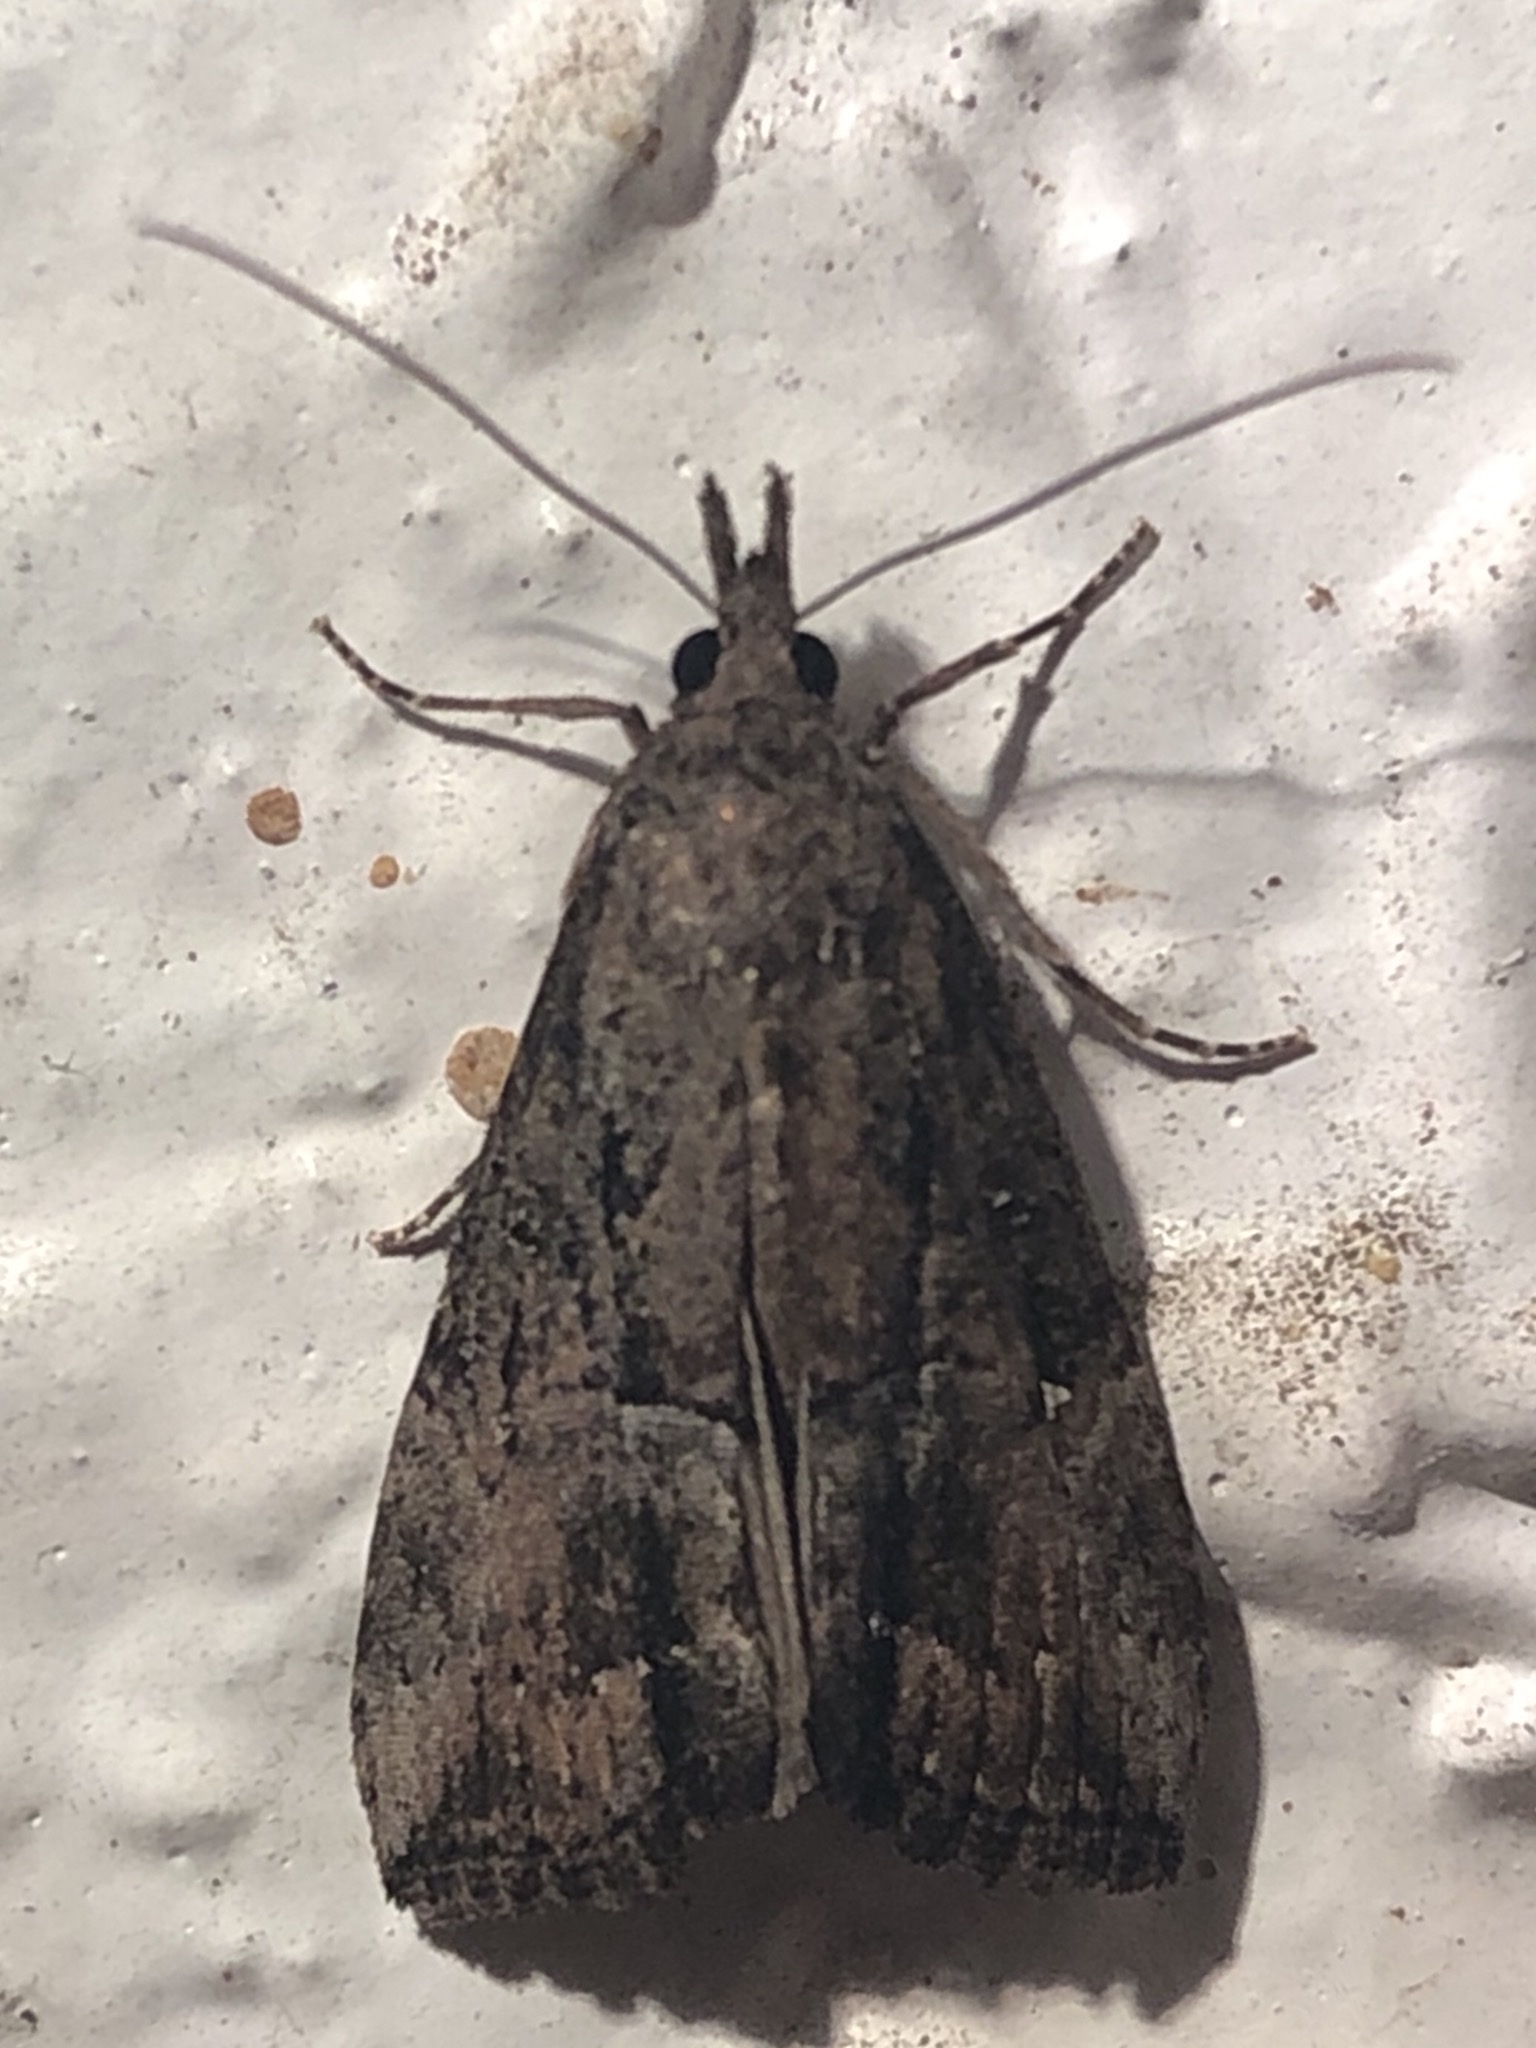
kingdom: Animalia
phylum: Arthropoda
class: Insecta
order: Lepidoptera
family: Erebidae
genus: Hypena
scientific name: Hypena scabra
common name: Green cloverworm
